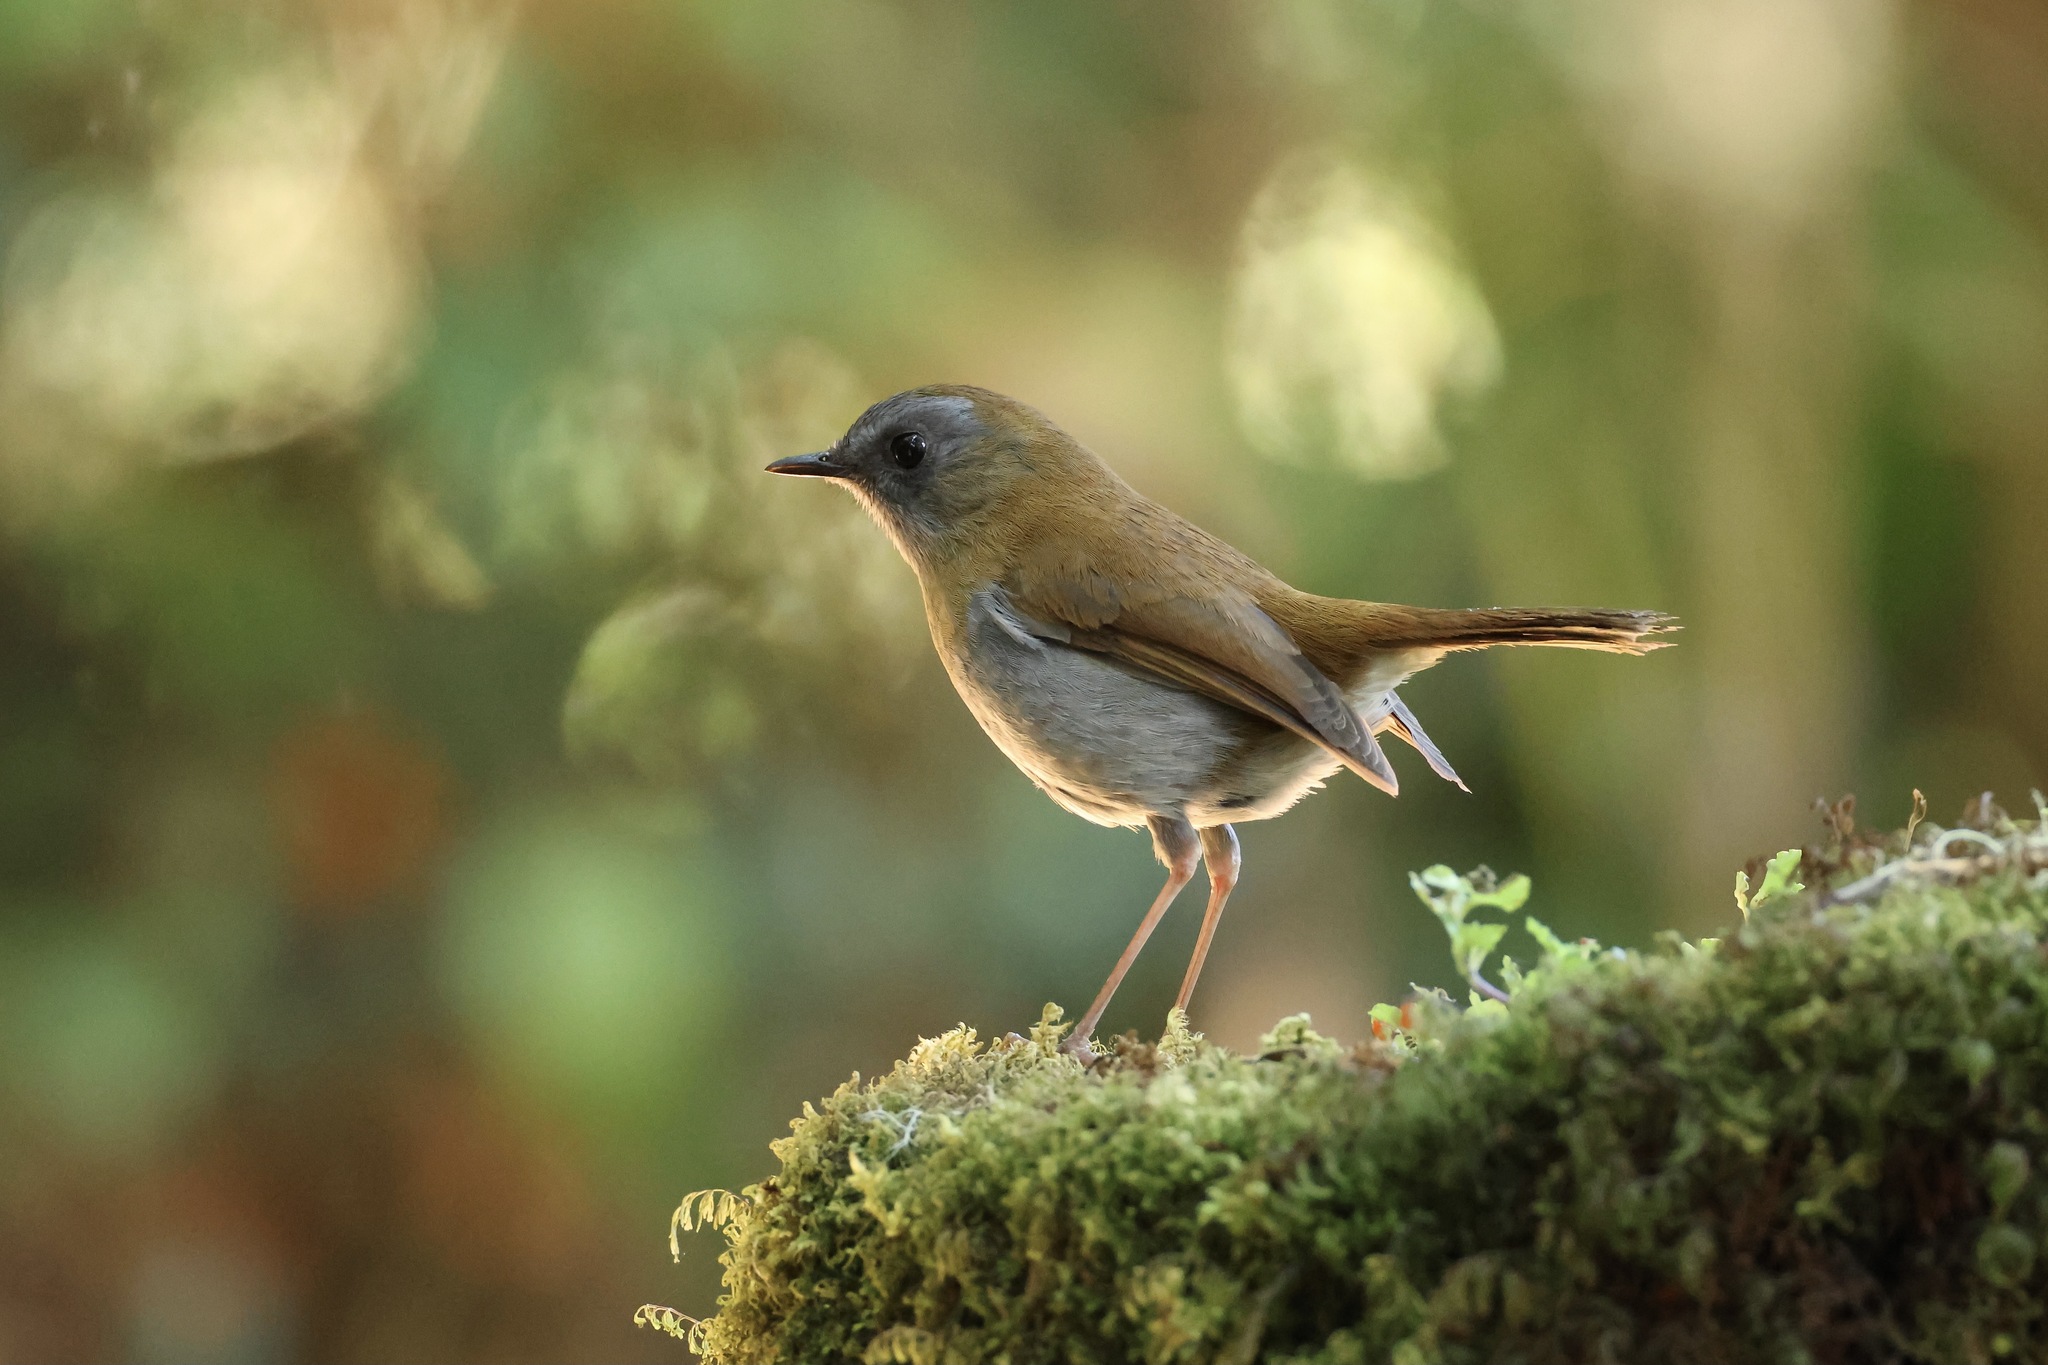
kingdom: Animalia
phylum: Chordata
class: Aves
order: Passeriformes
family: Turdidae
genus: Catharus
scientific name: Catharus gracilirostris
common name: Black-billed nightingale-thrush
